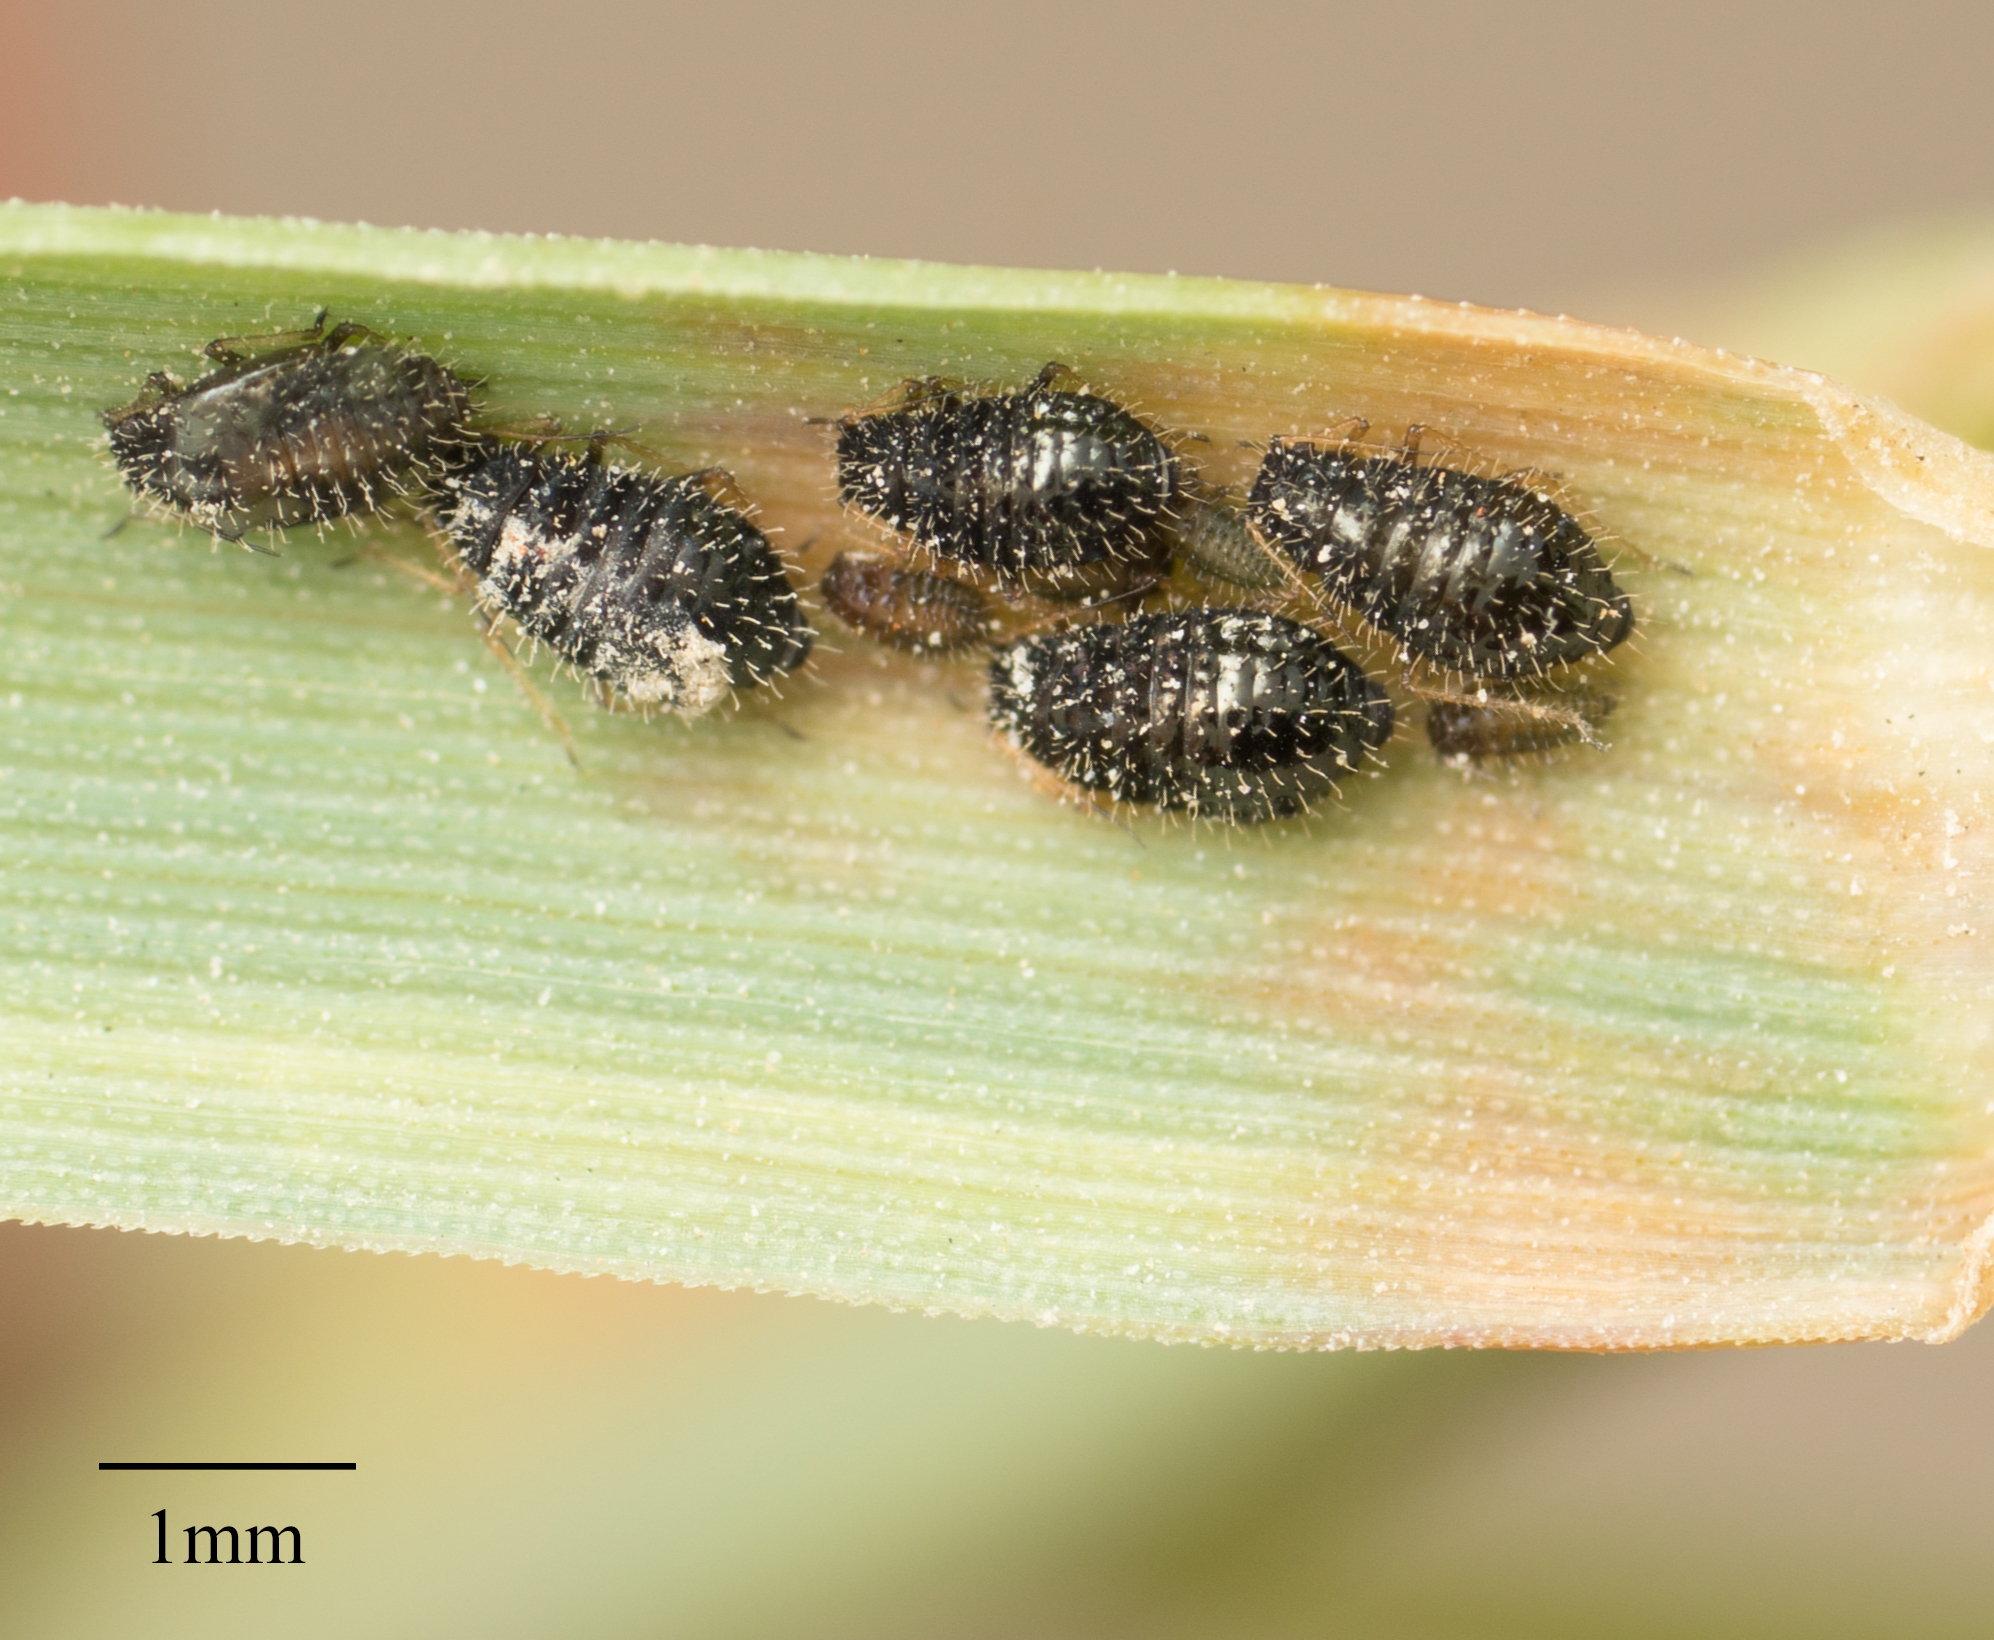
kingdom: Animalia
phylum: Arthropoda
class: Insecta
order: Hemiptera
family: Aphididae
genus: Sipha
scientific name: Sipha maydis
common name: Aphid
